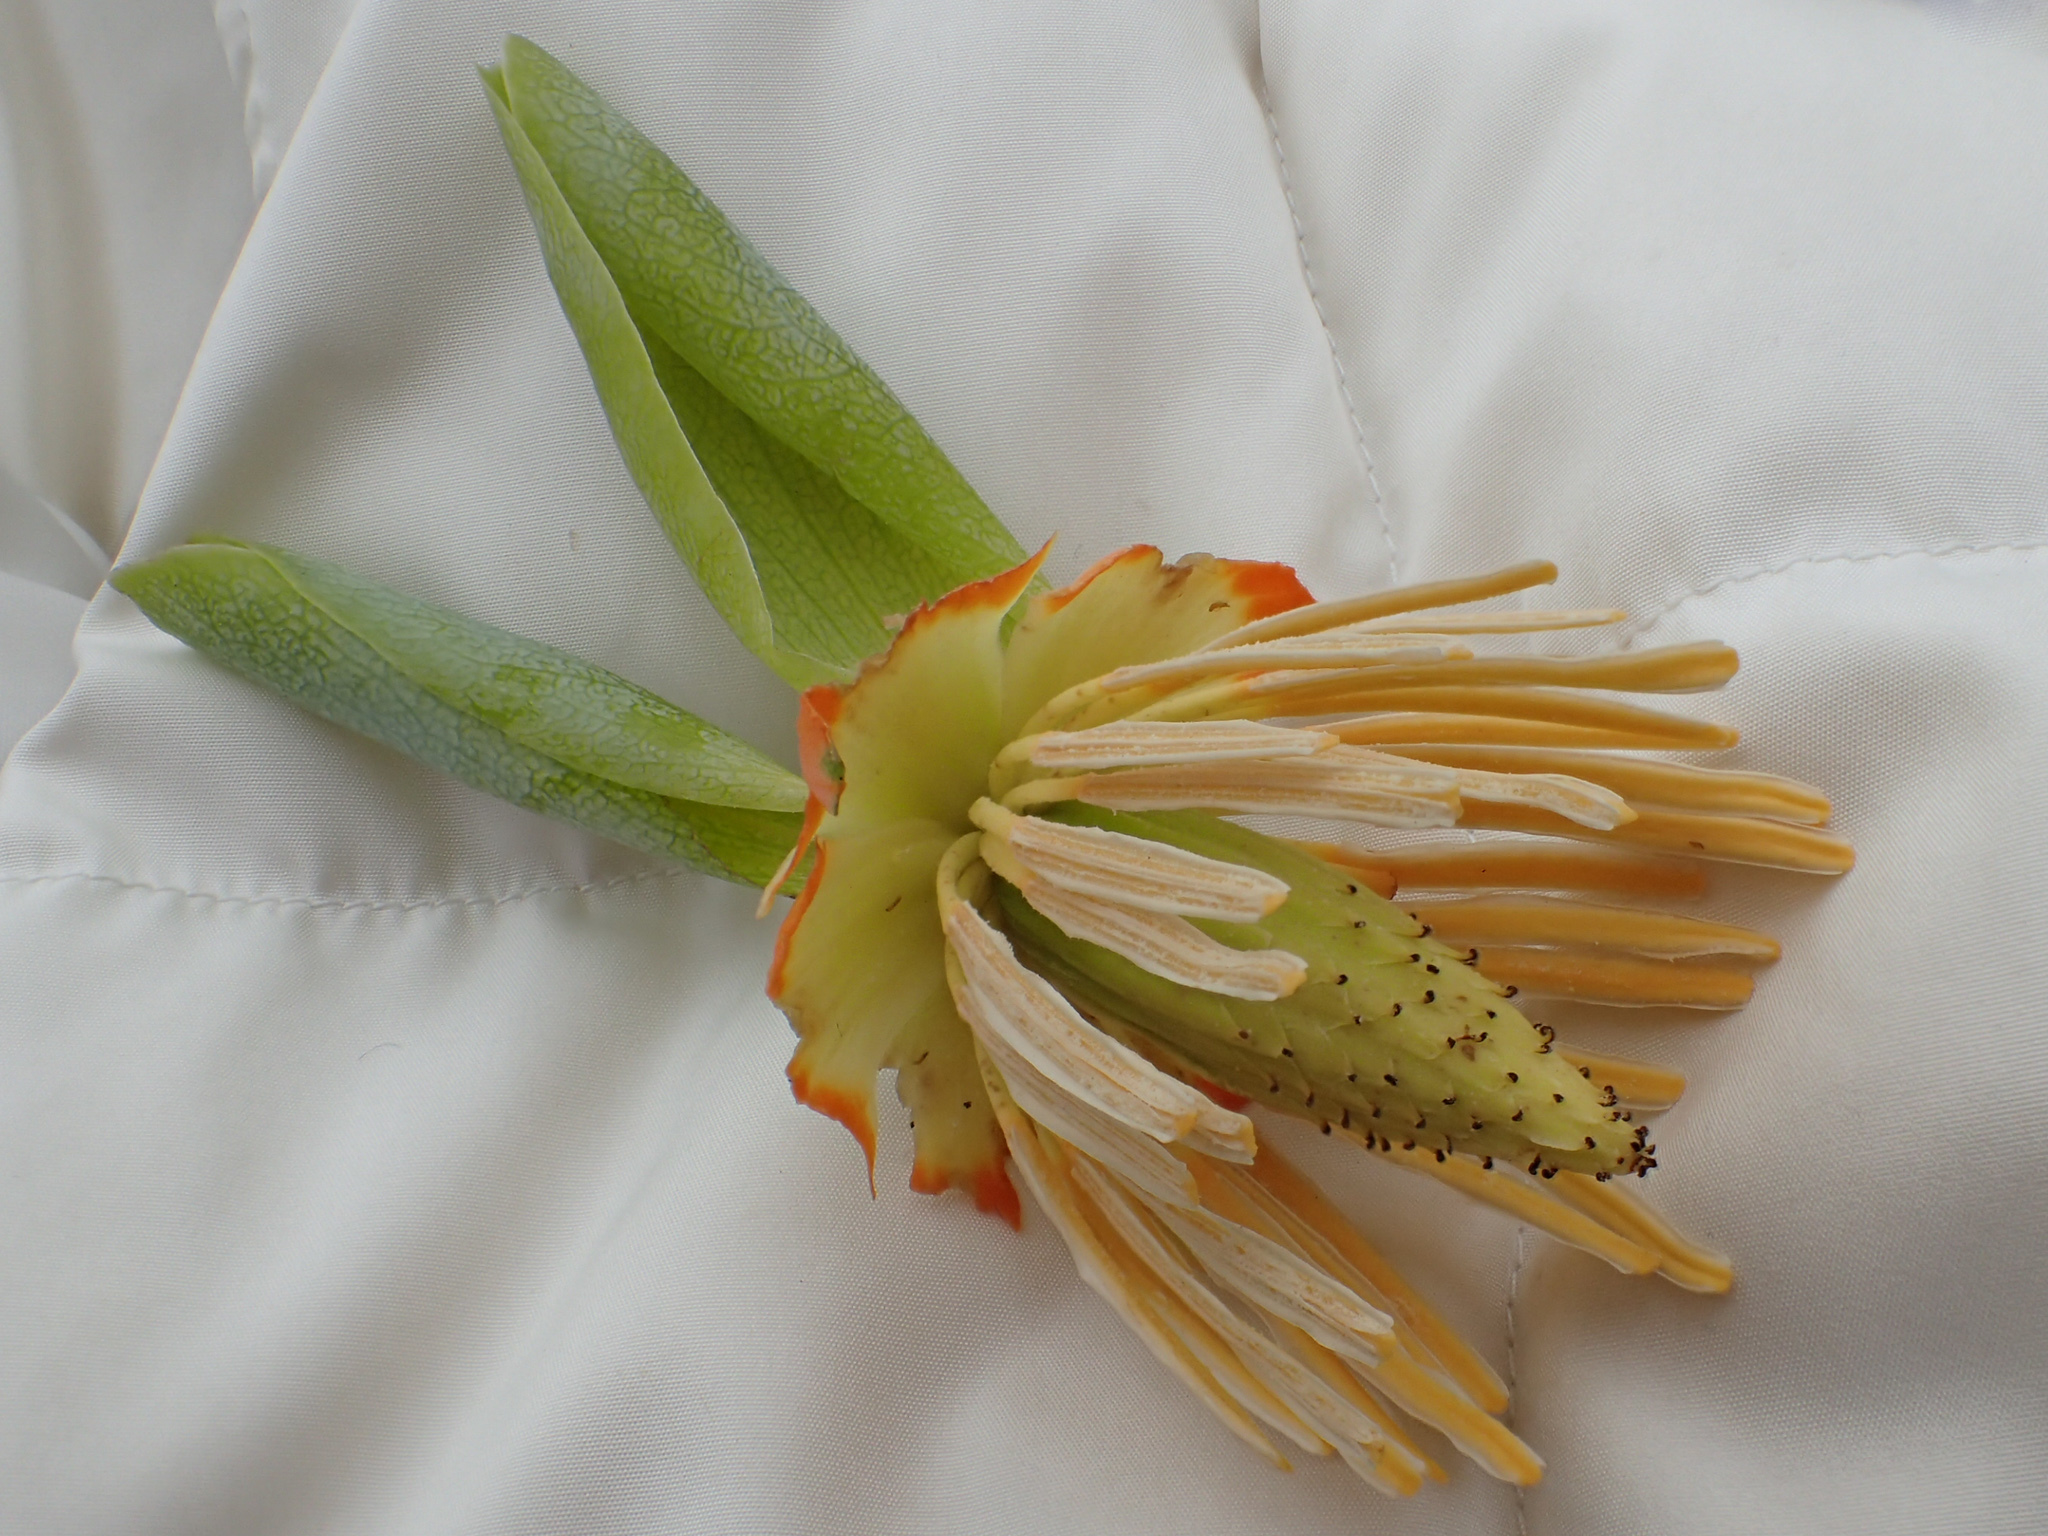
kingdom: Plantae
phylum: Tracheophyta
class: Magnoliopsida
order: Magnoliales
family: Magnoliaceae
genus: Liriodendron
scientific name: Liriodendron tulipifera
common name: Tulip tree
